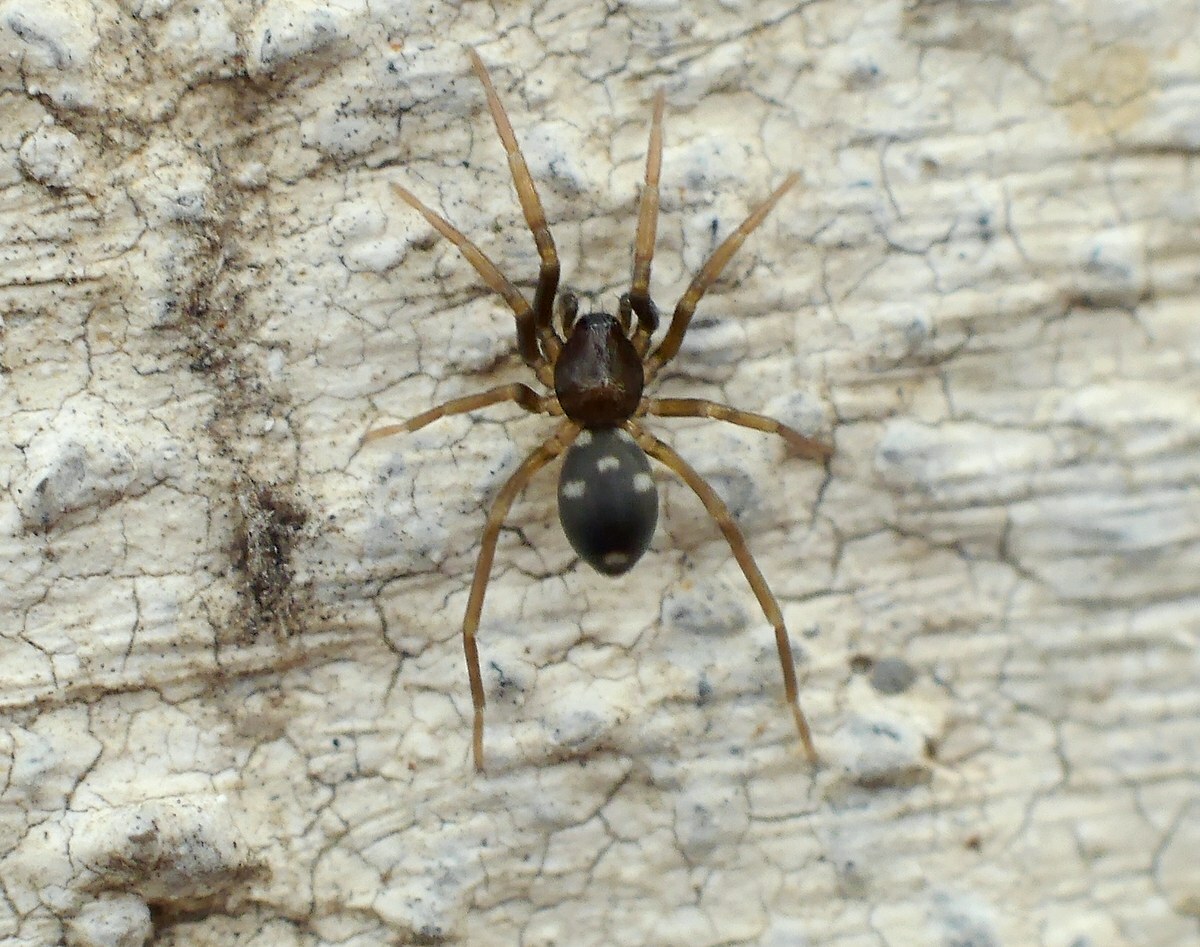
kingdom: Animalia
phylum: Arthropoda
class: Arachnida
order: Araneae
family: Phrurolithidae
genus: Phrurolithus
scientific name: Phrurolithus festivus
